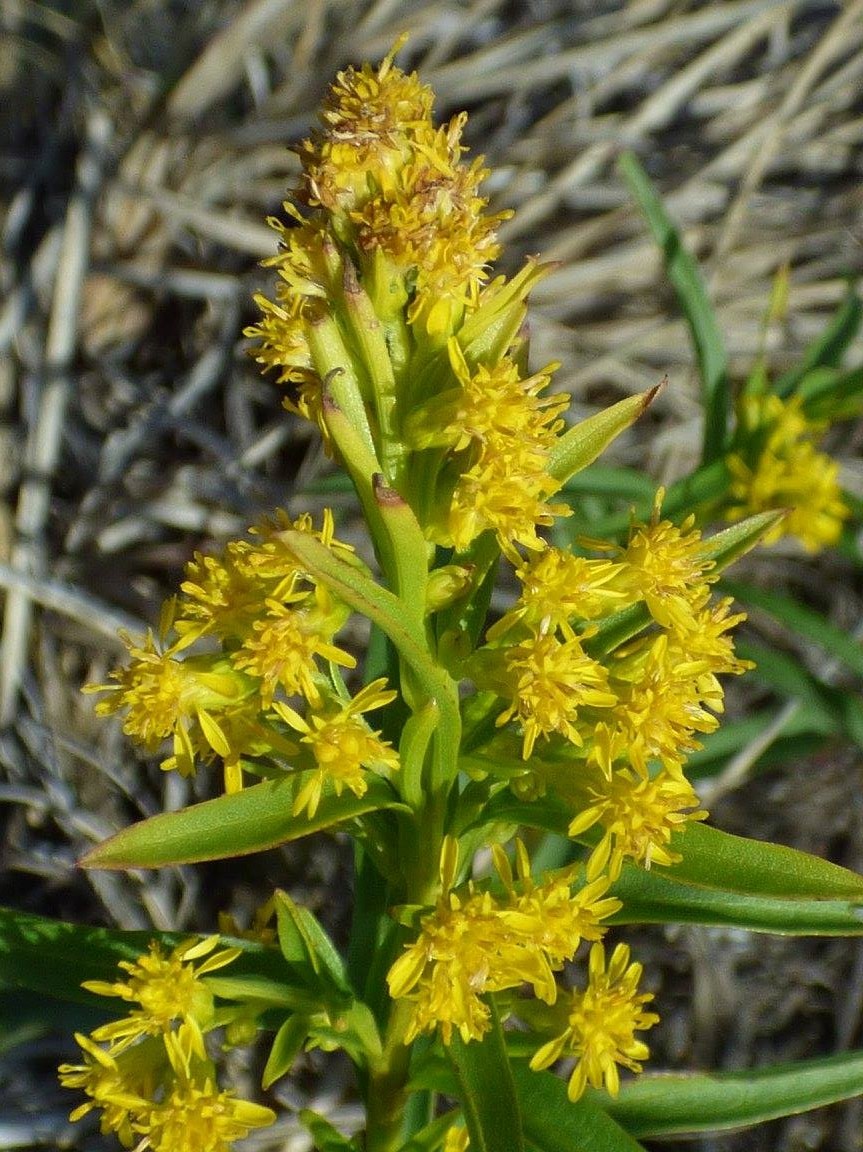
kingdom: Plantae
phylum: Tracheophyta
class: Magnoliopsida
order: Asterales
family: Asteraceae
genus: Solidago
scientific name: Solidago mexicana
